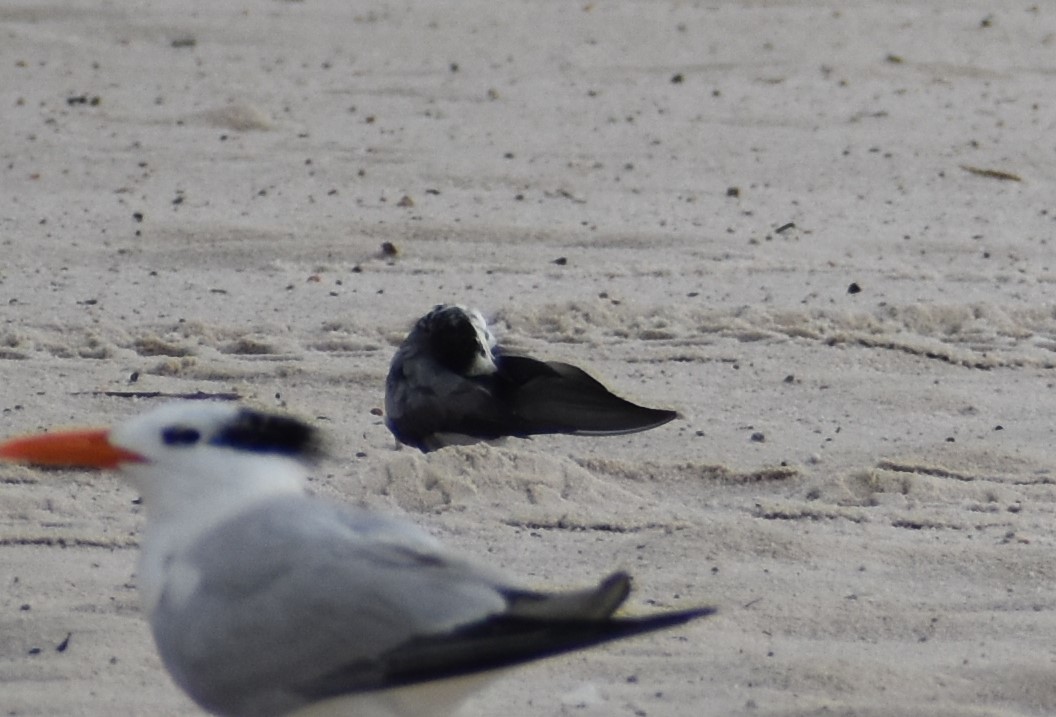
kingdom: Animalia
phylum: Chordata
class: Aves
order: Charadriiformes
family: Laridae
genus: Chlidonias
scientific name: Chlidonias niger
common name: Black tern
